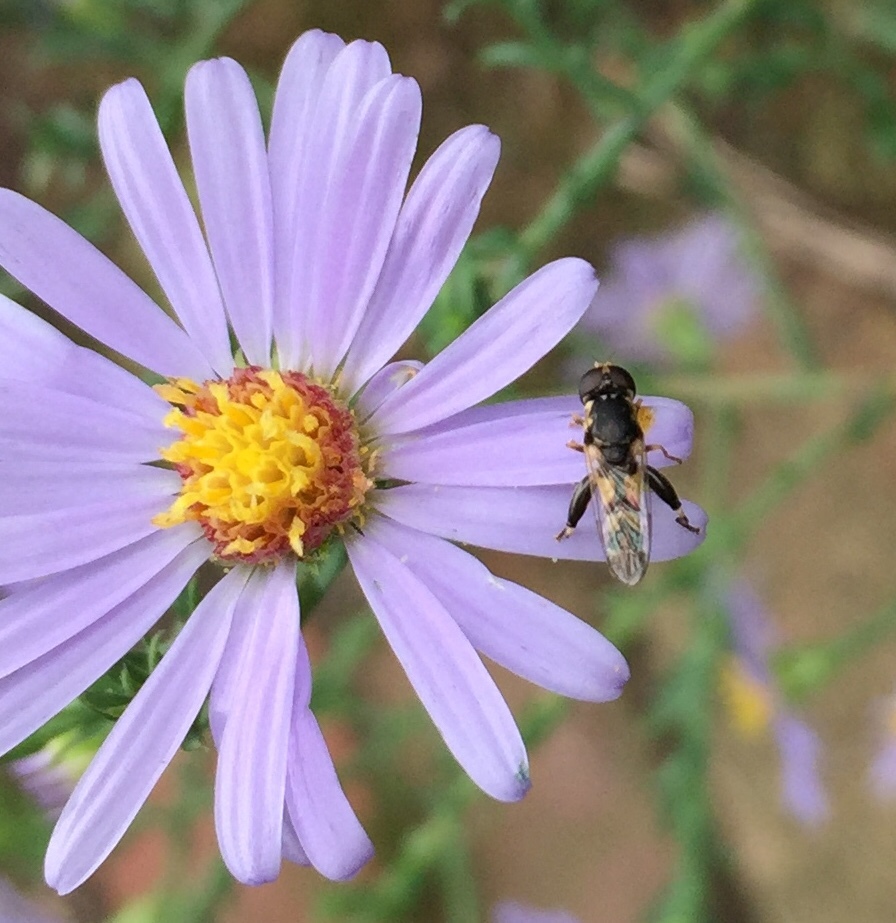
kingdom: Animalia
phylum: Arthropoda
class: Insecta
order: Diptera
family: Syrphidae
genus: Syritta
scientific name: Syritta pipiens
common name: Hover fly
